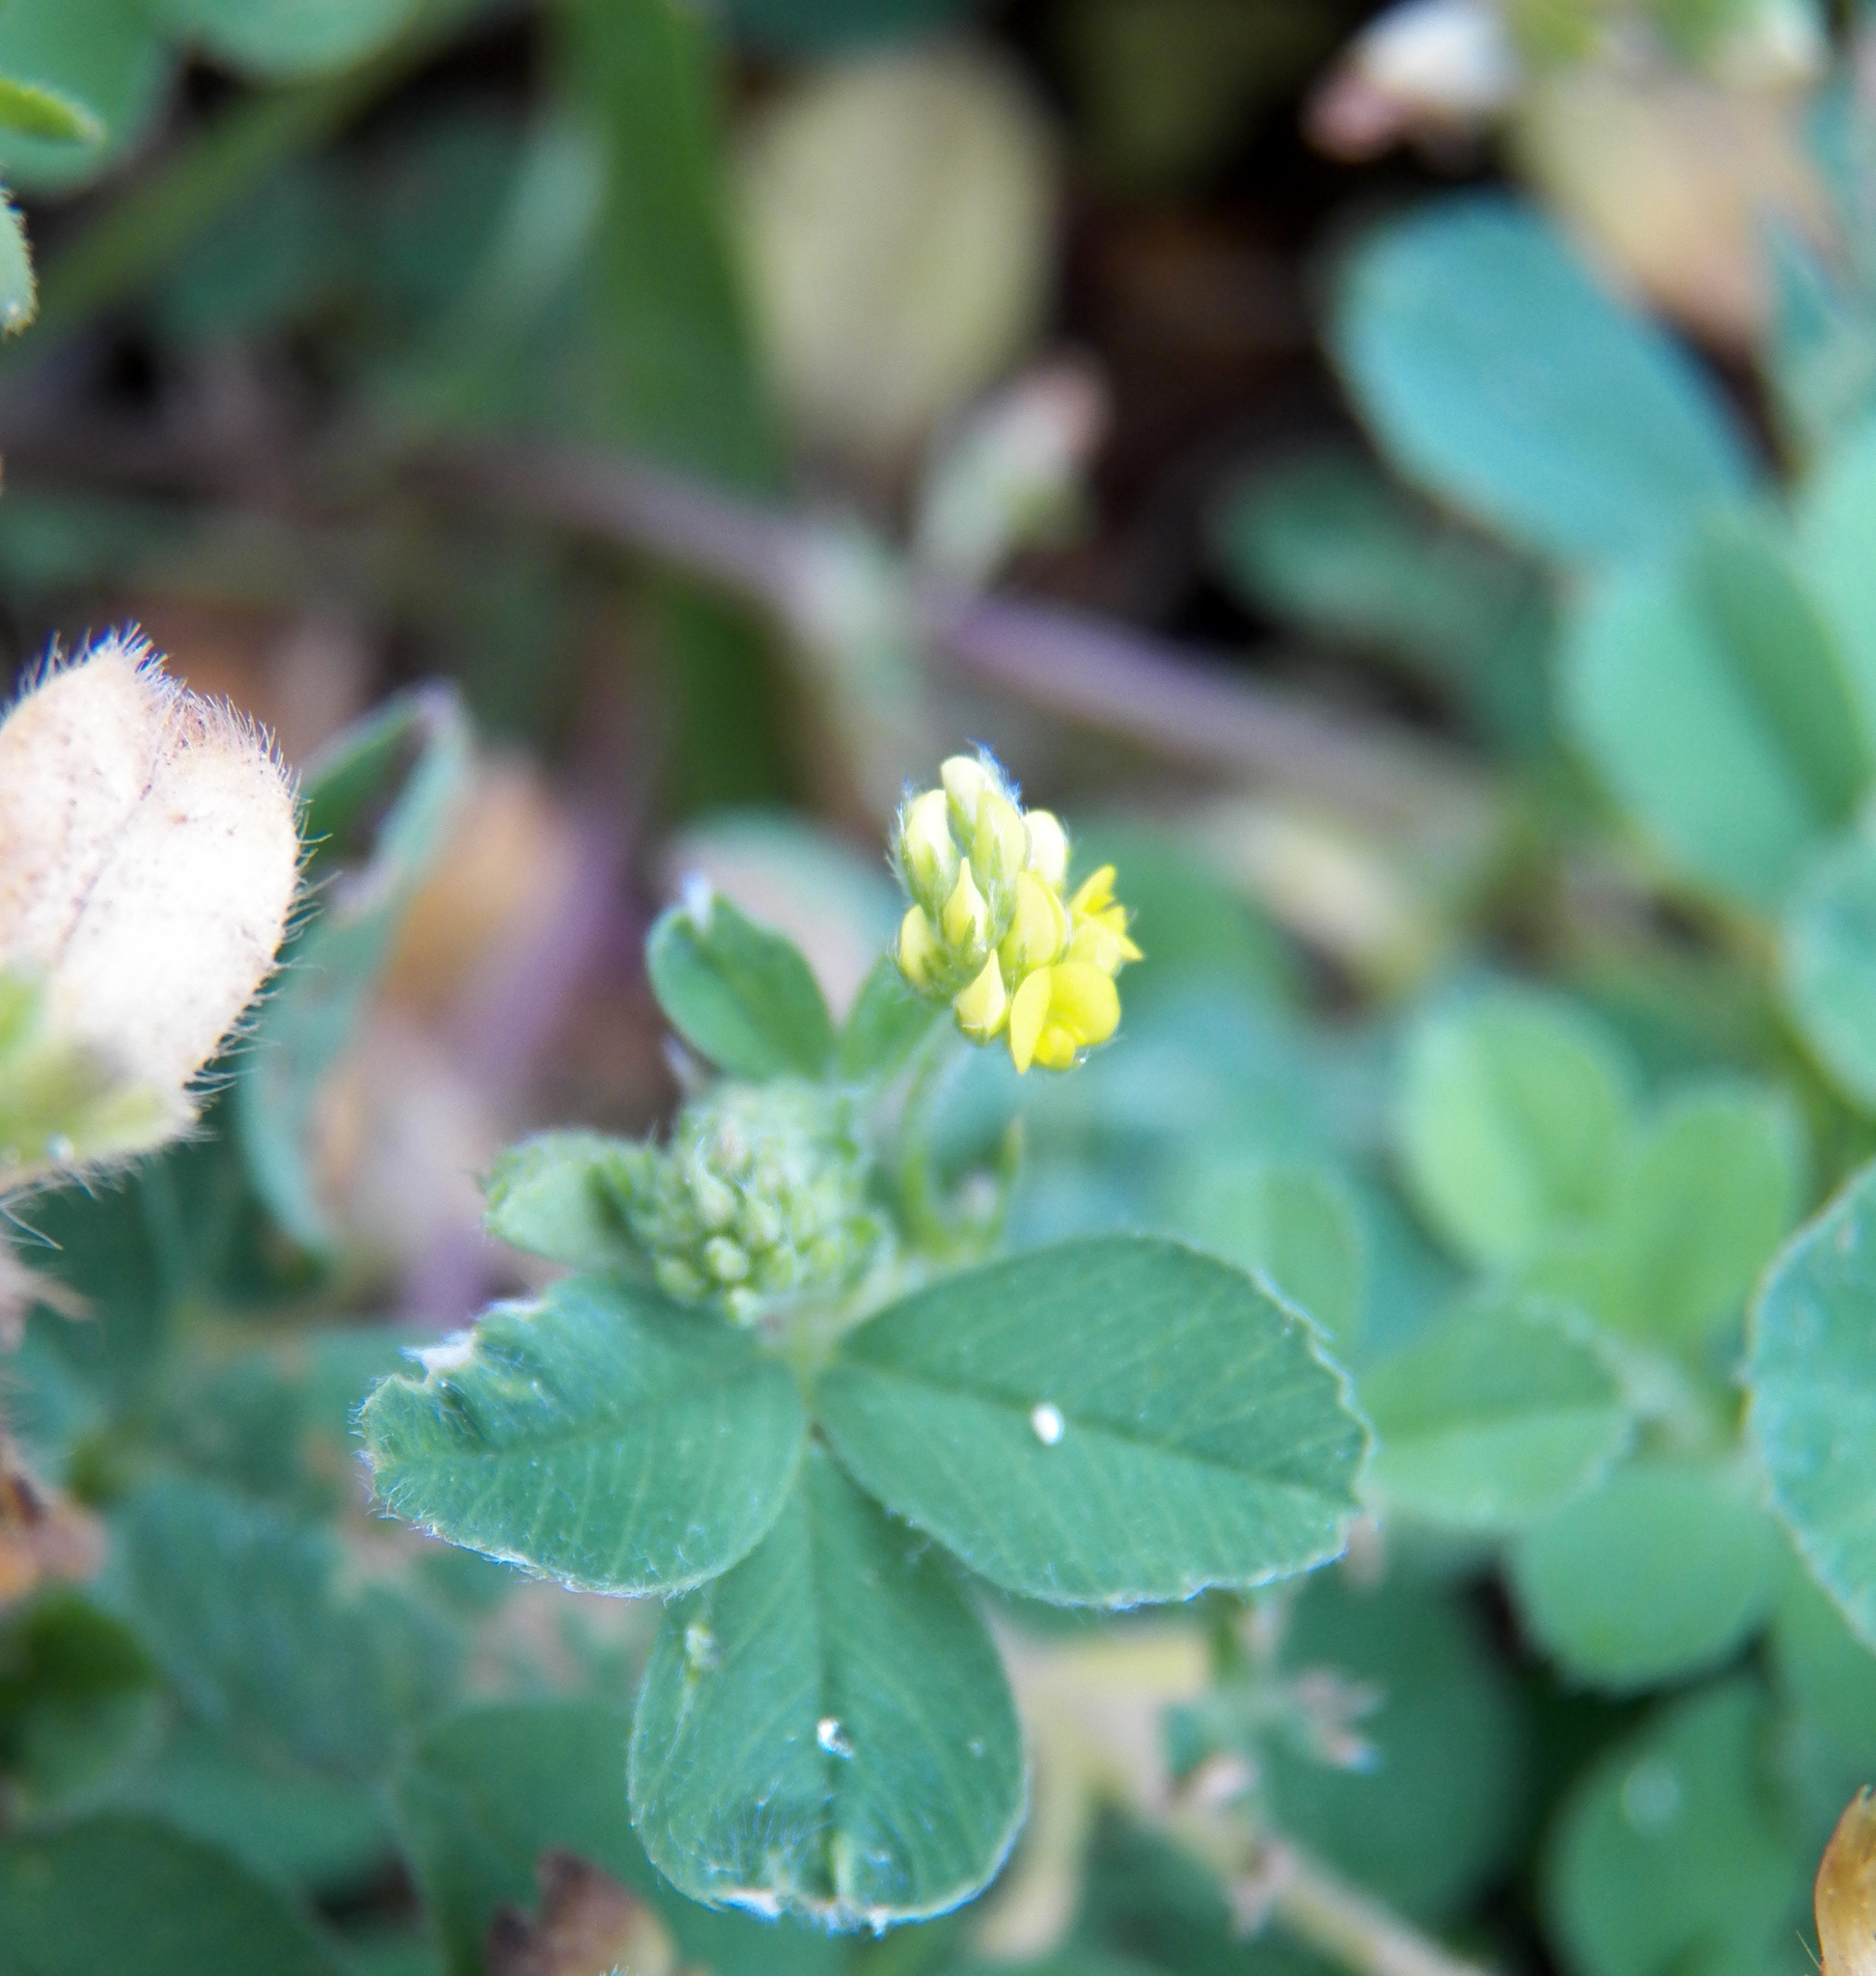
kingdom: Plantae
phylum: Tracheophyta
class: Magnoliopsida
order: Fabales
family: Fabaceae
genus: Medicago
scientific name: Medicago lupulina
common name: Black medick
